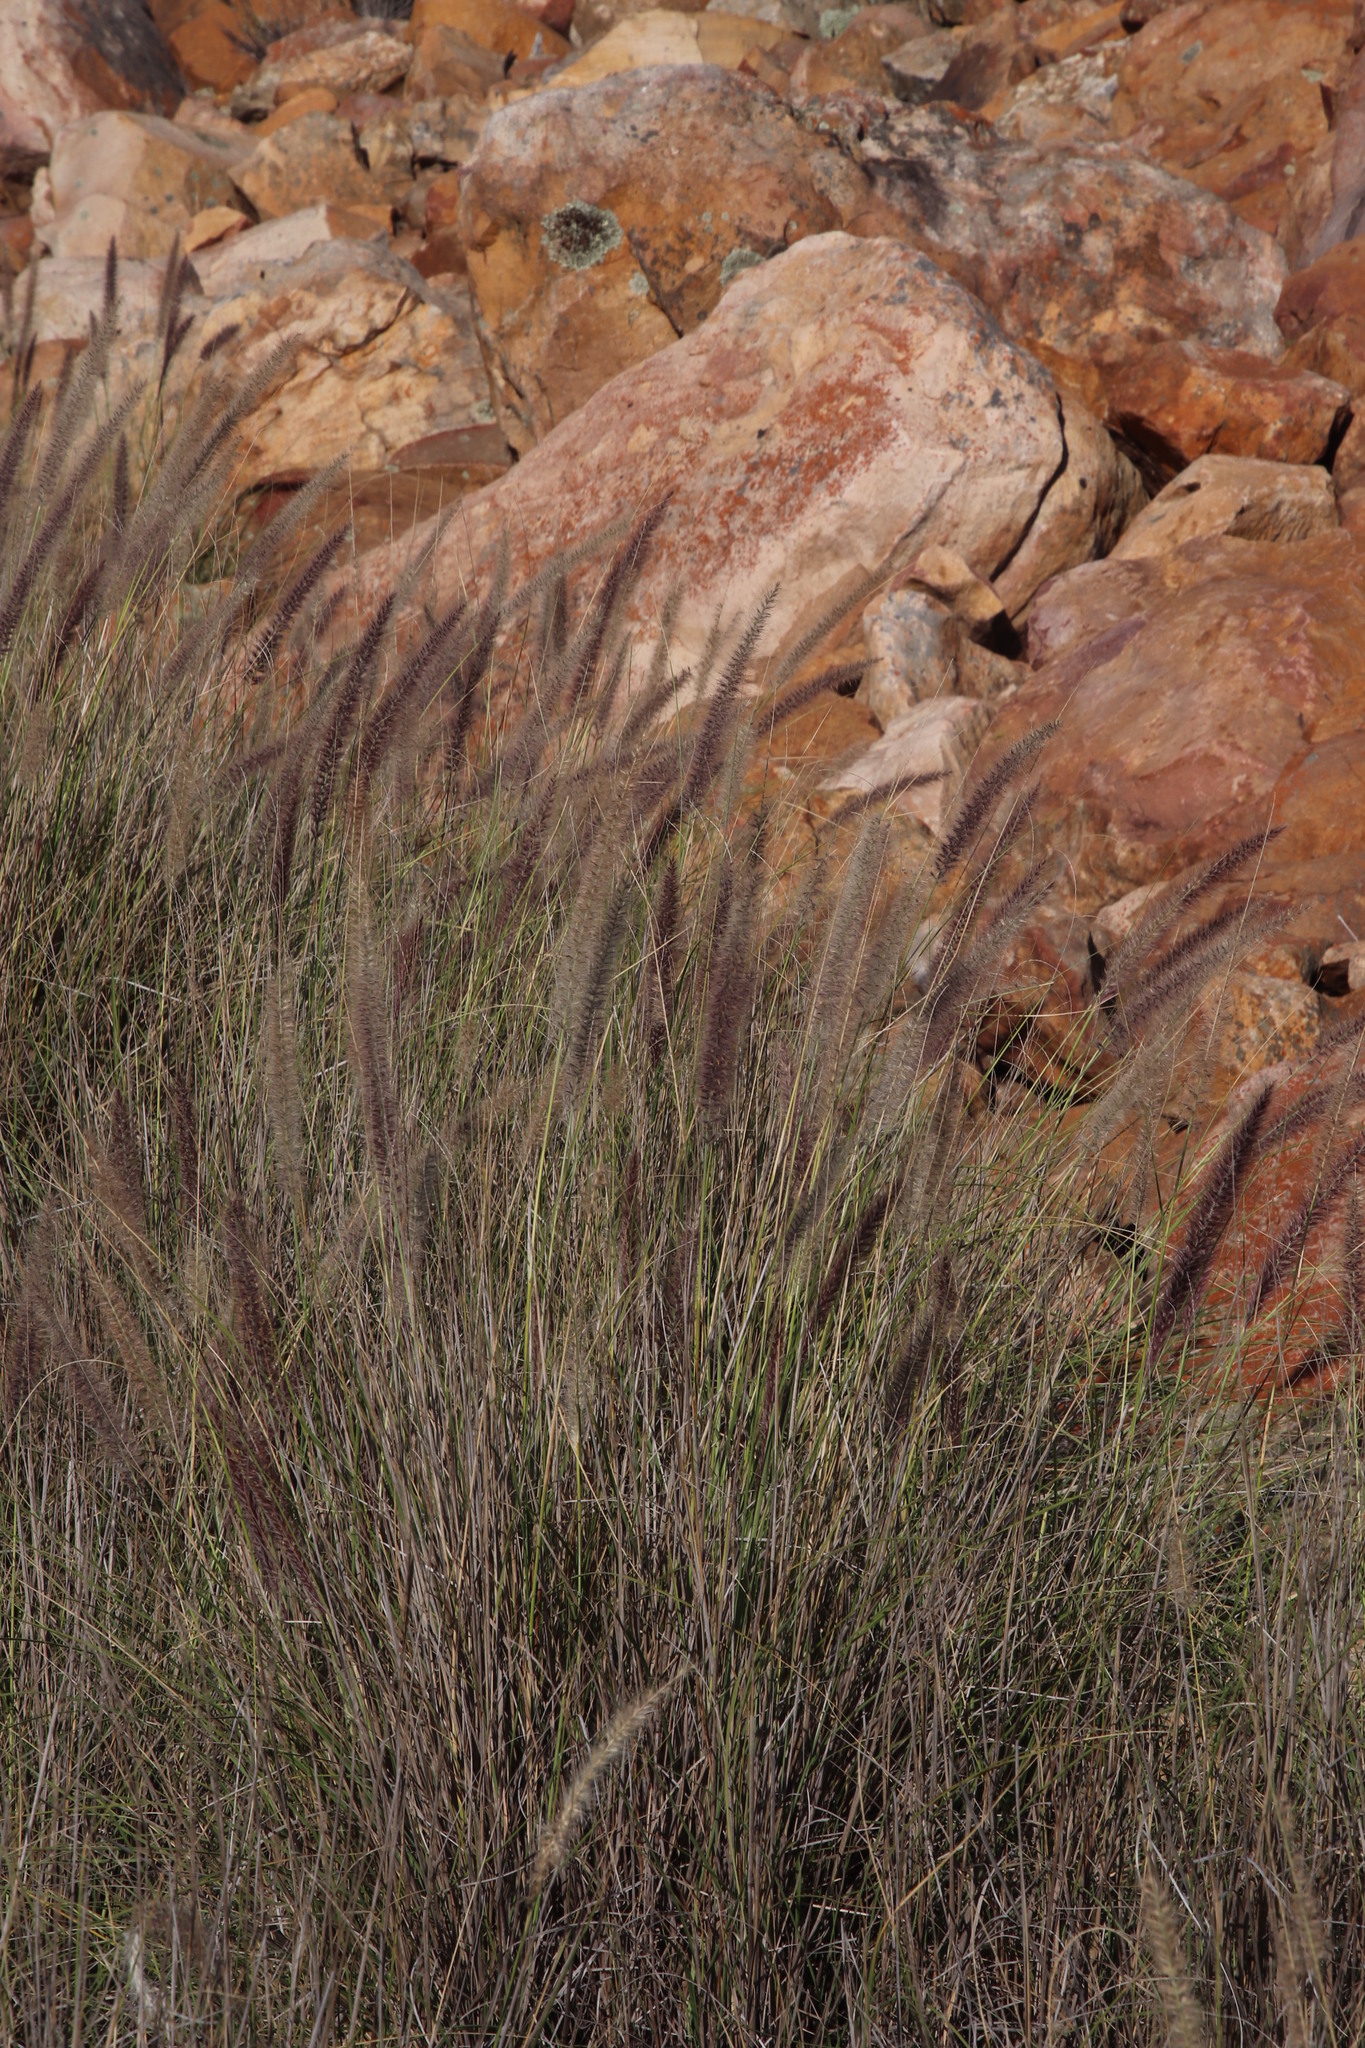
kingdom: Plantae
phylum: Tracheophyta
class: Liliopsida
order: Poales
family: Poaceae
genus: Cenchrus
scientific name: Cenchrus setaceus
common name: Crimson fountaingrass
